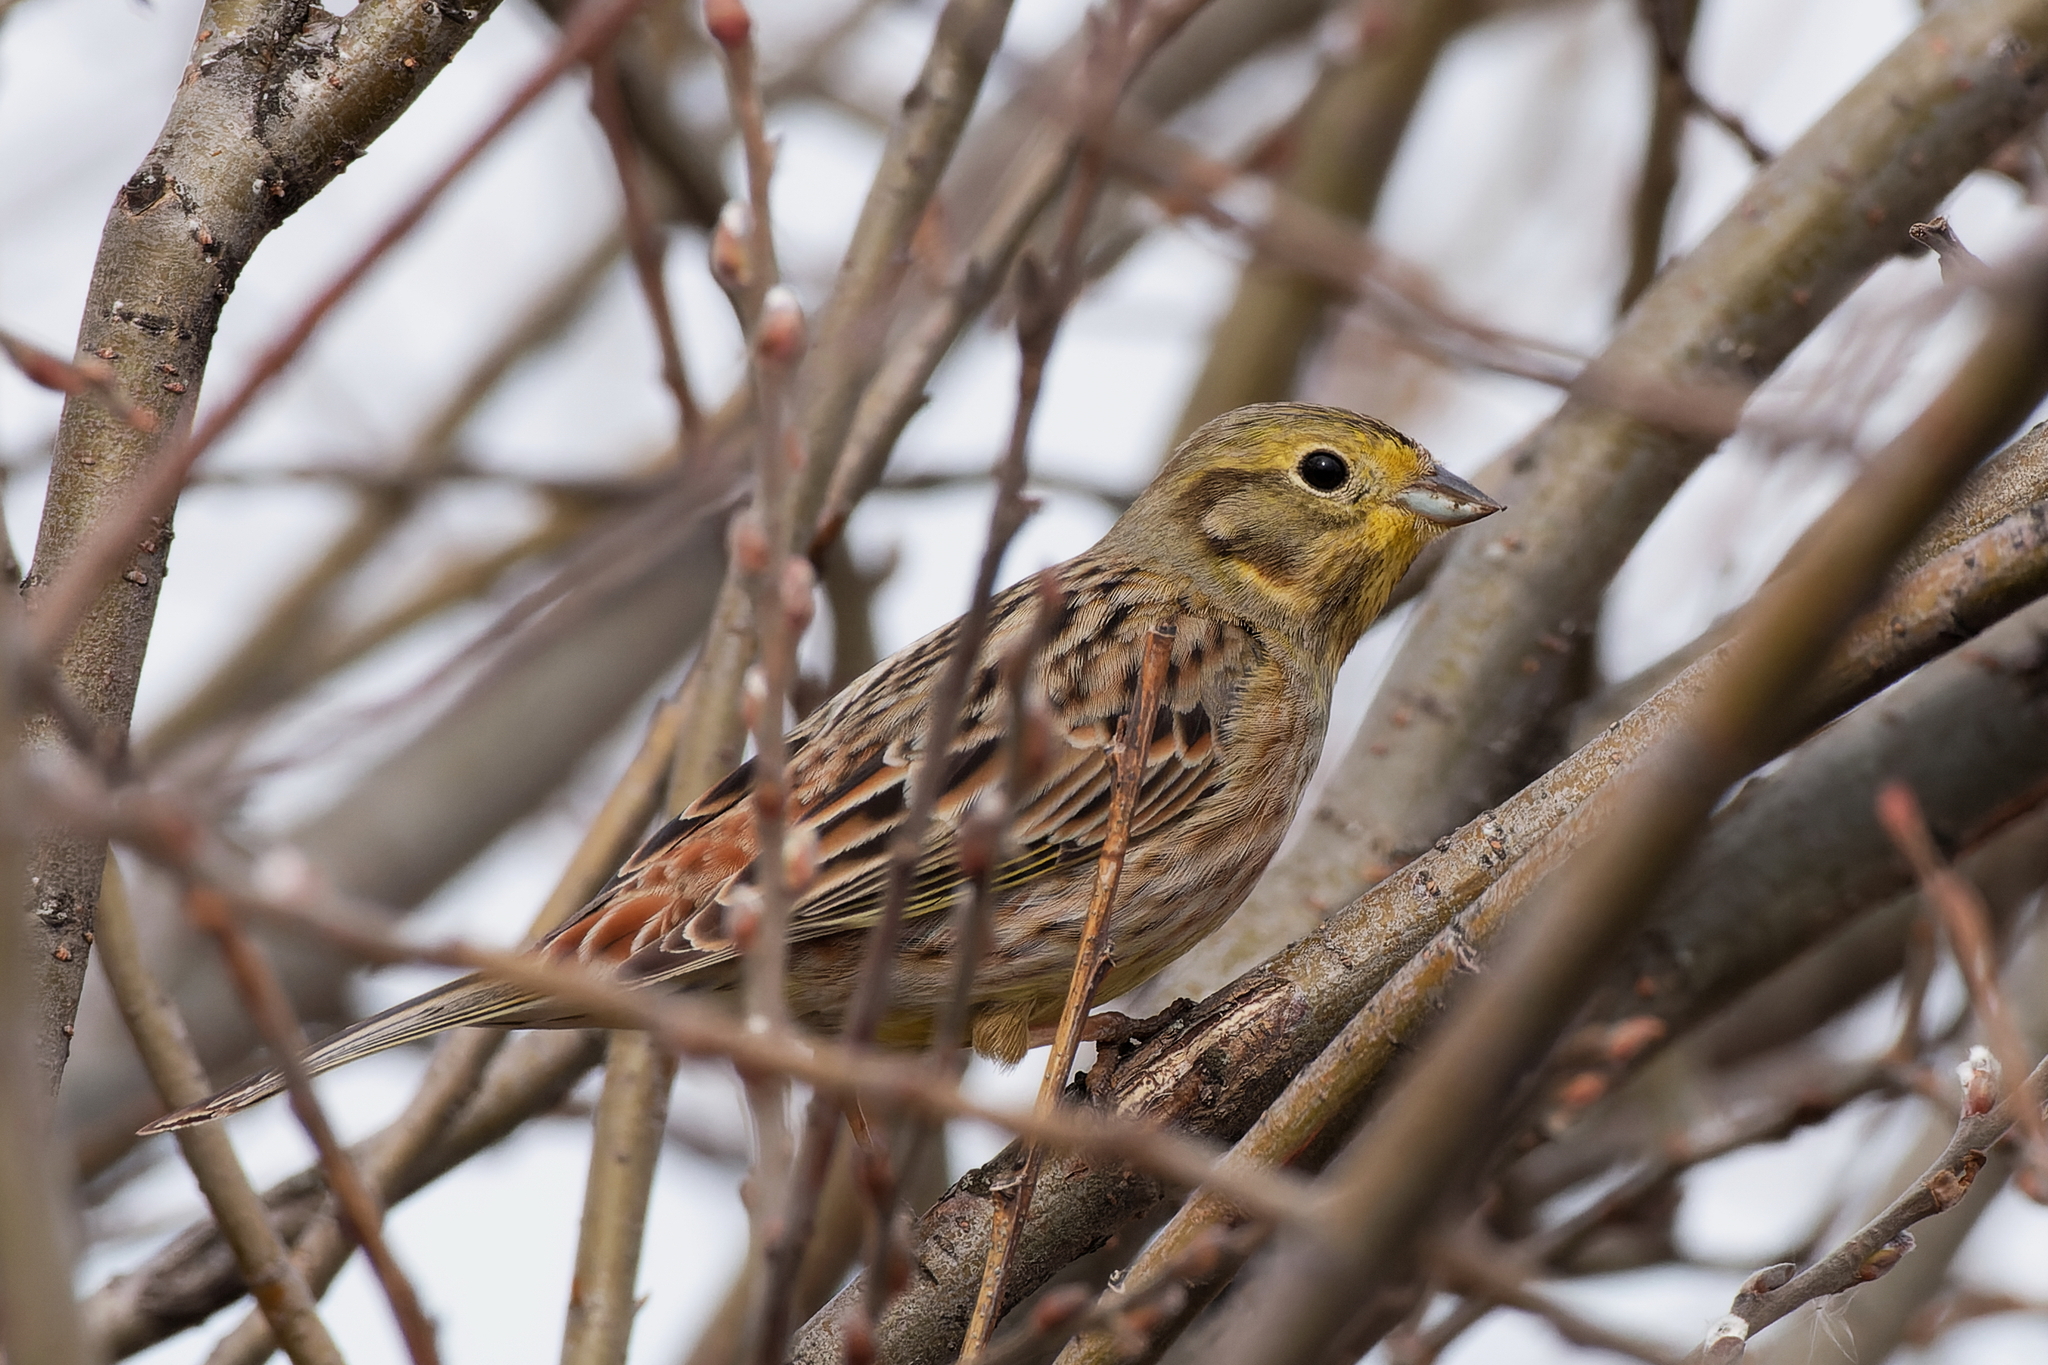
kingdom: Animalia
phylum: Chordata
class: Aves
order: Passeriformes
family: Emberizidae
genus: Emberiza
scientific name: Emberiza citrinella
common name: Yellowhammer
